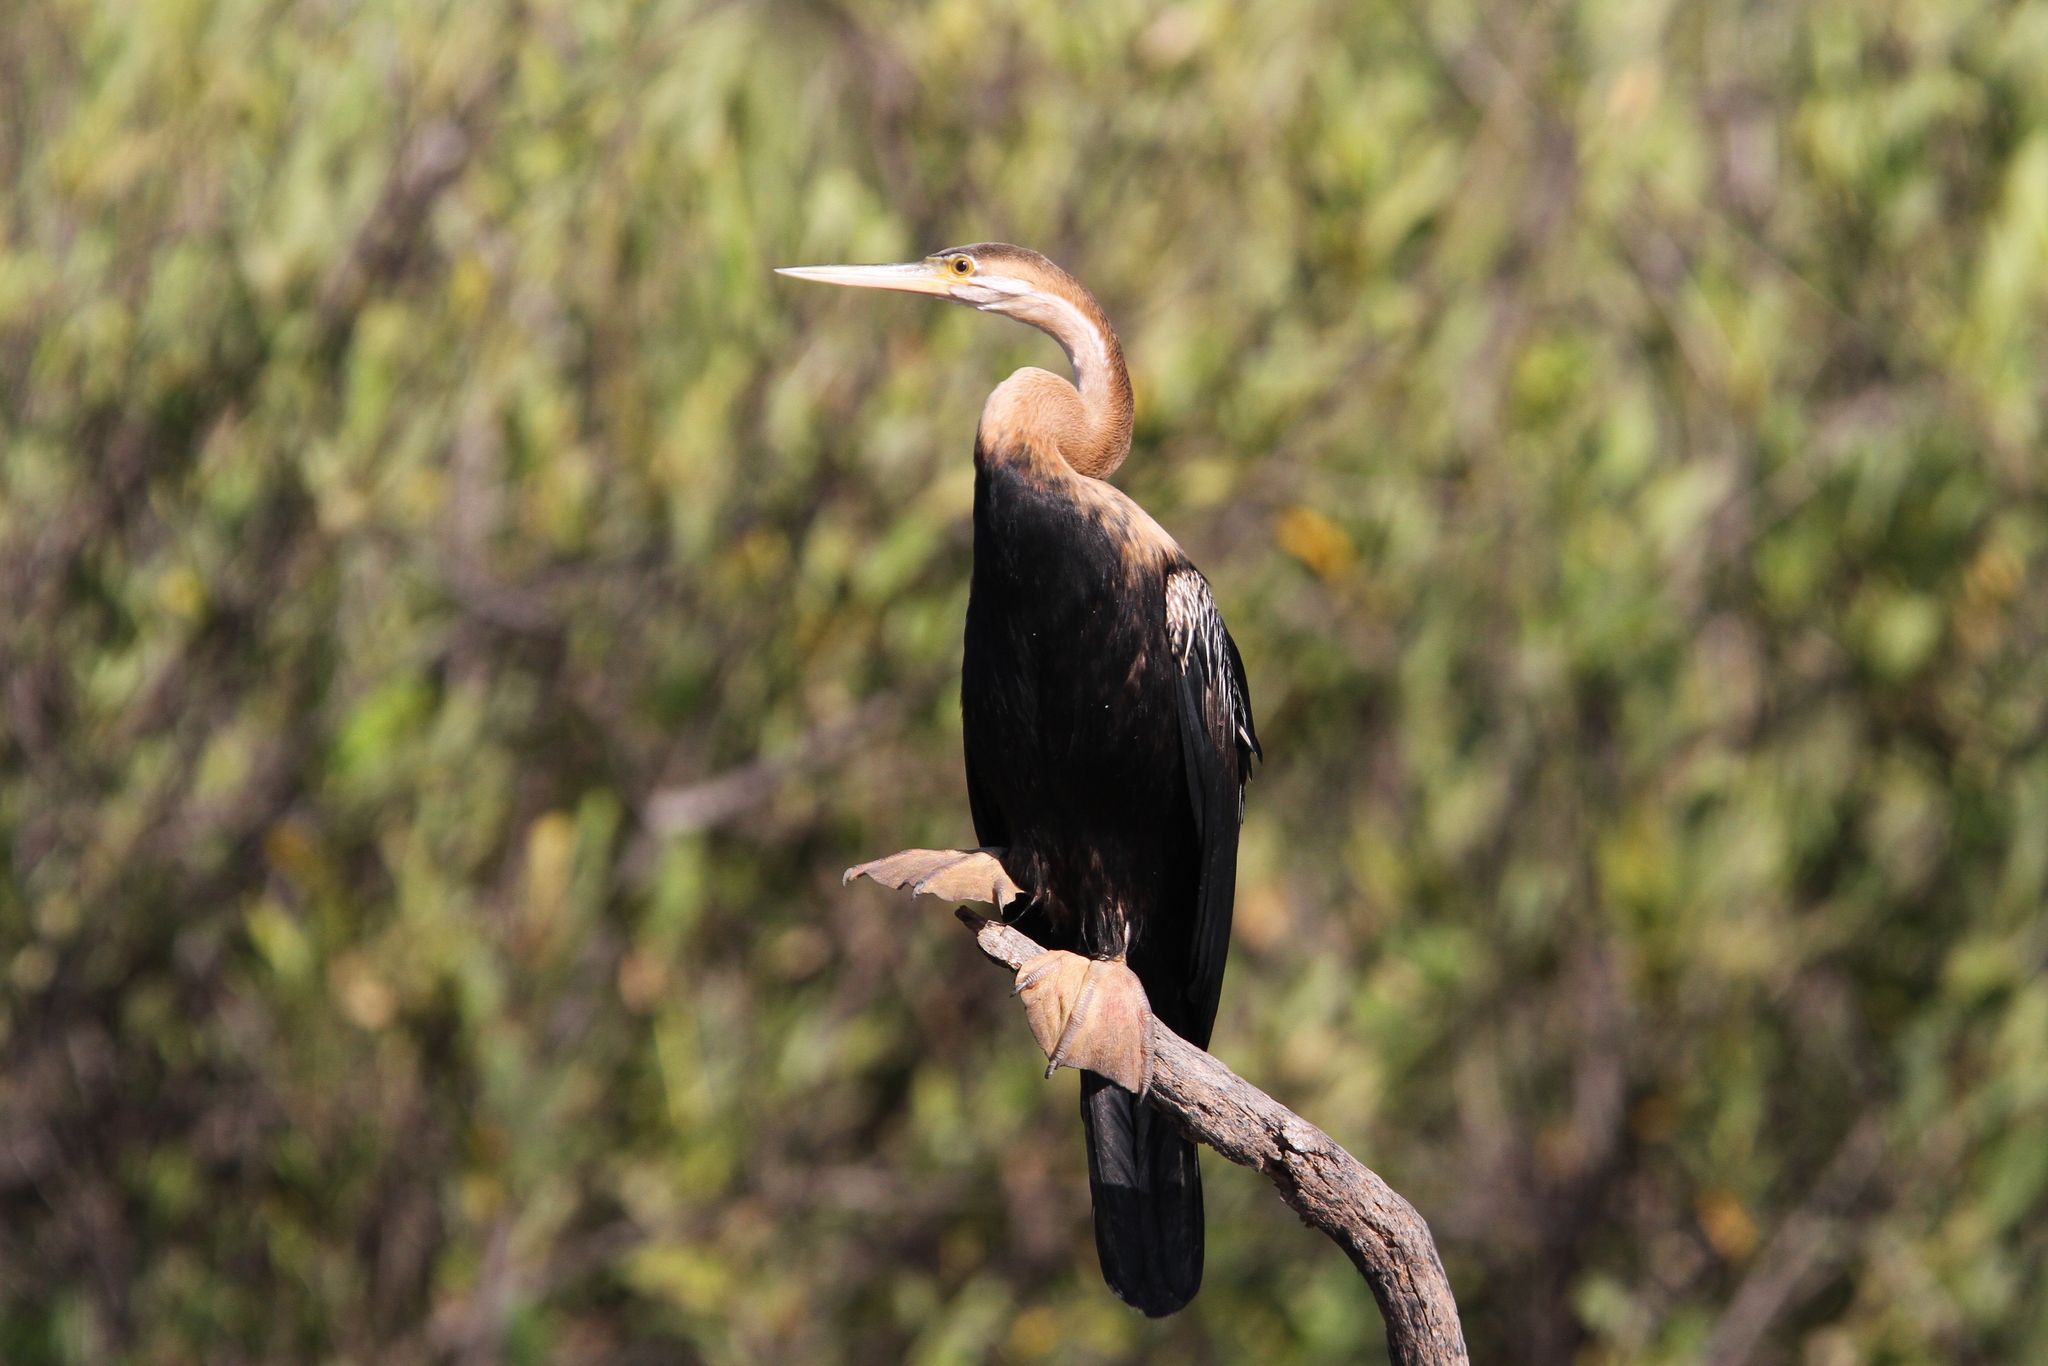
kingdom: Animalia
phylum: Chordata
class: Aves
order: Suliformes
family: Anhingidae
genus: Anhinga
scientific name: Anhinga rufa
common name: African darter
